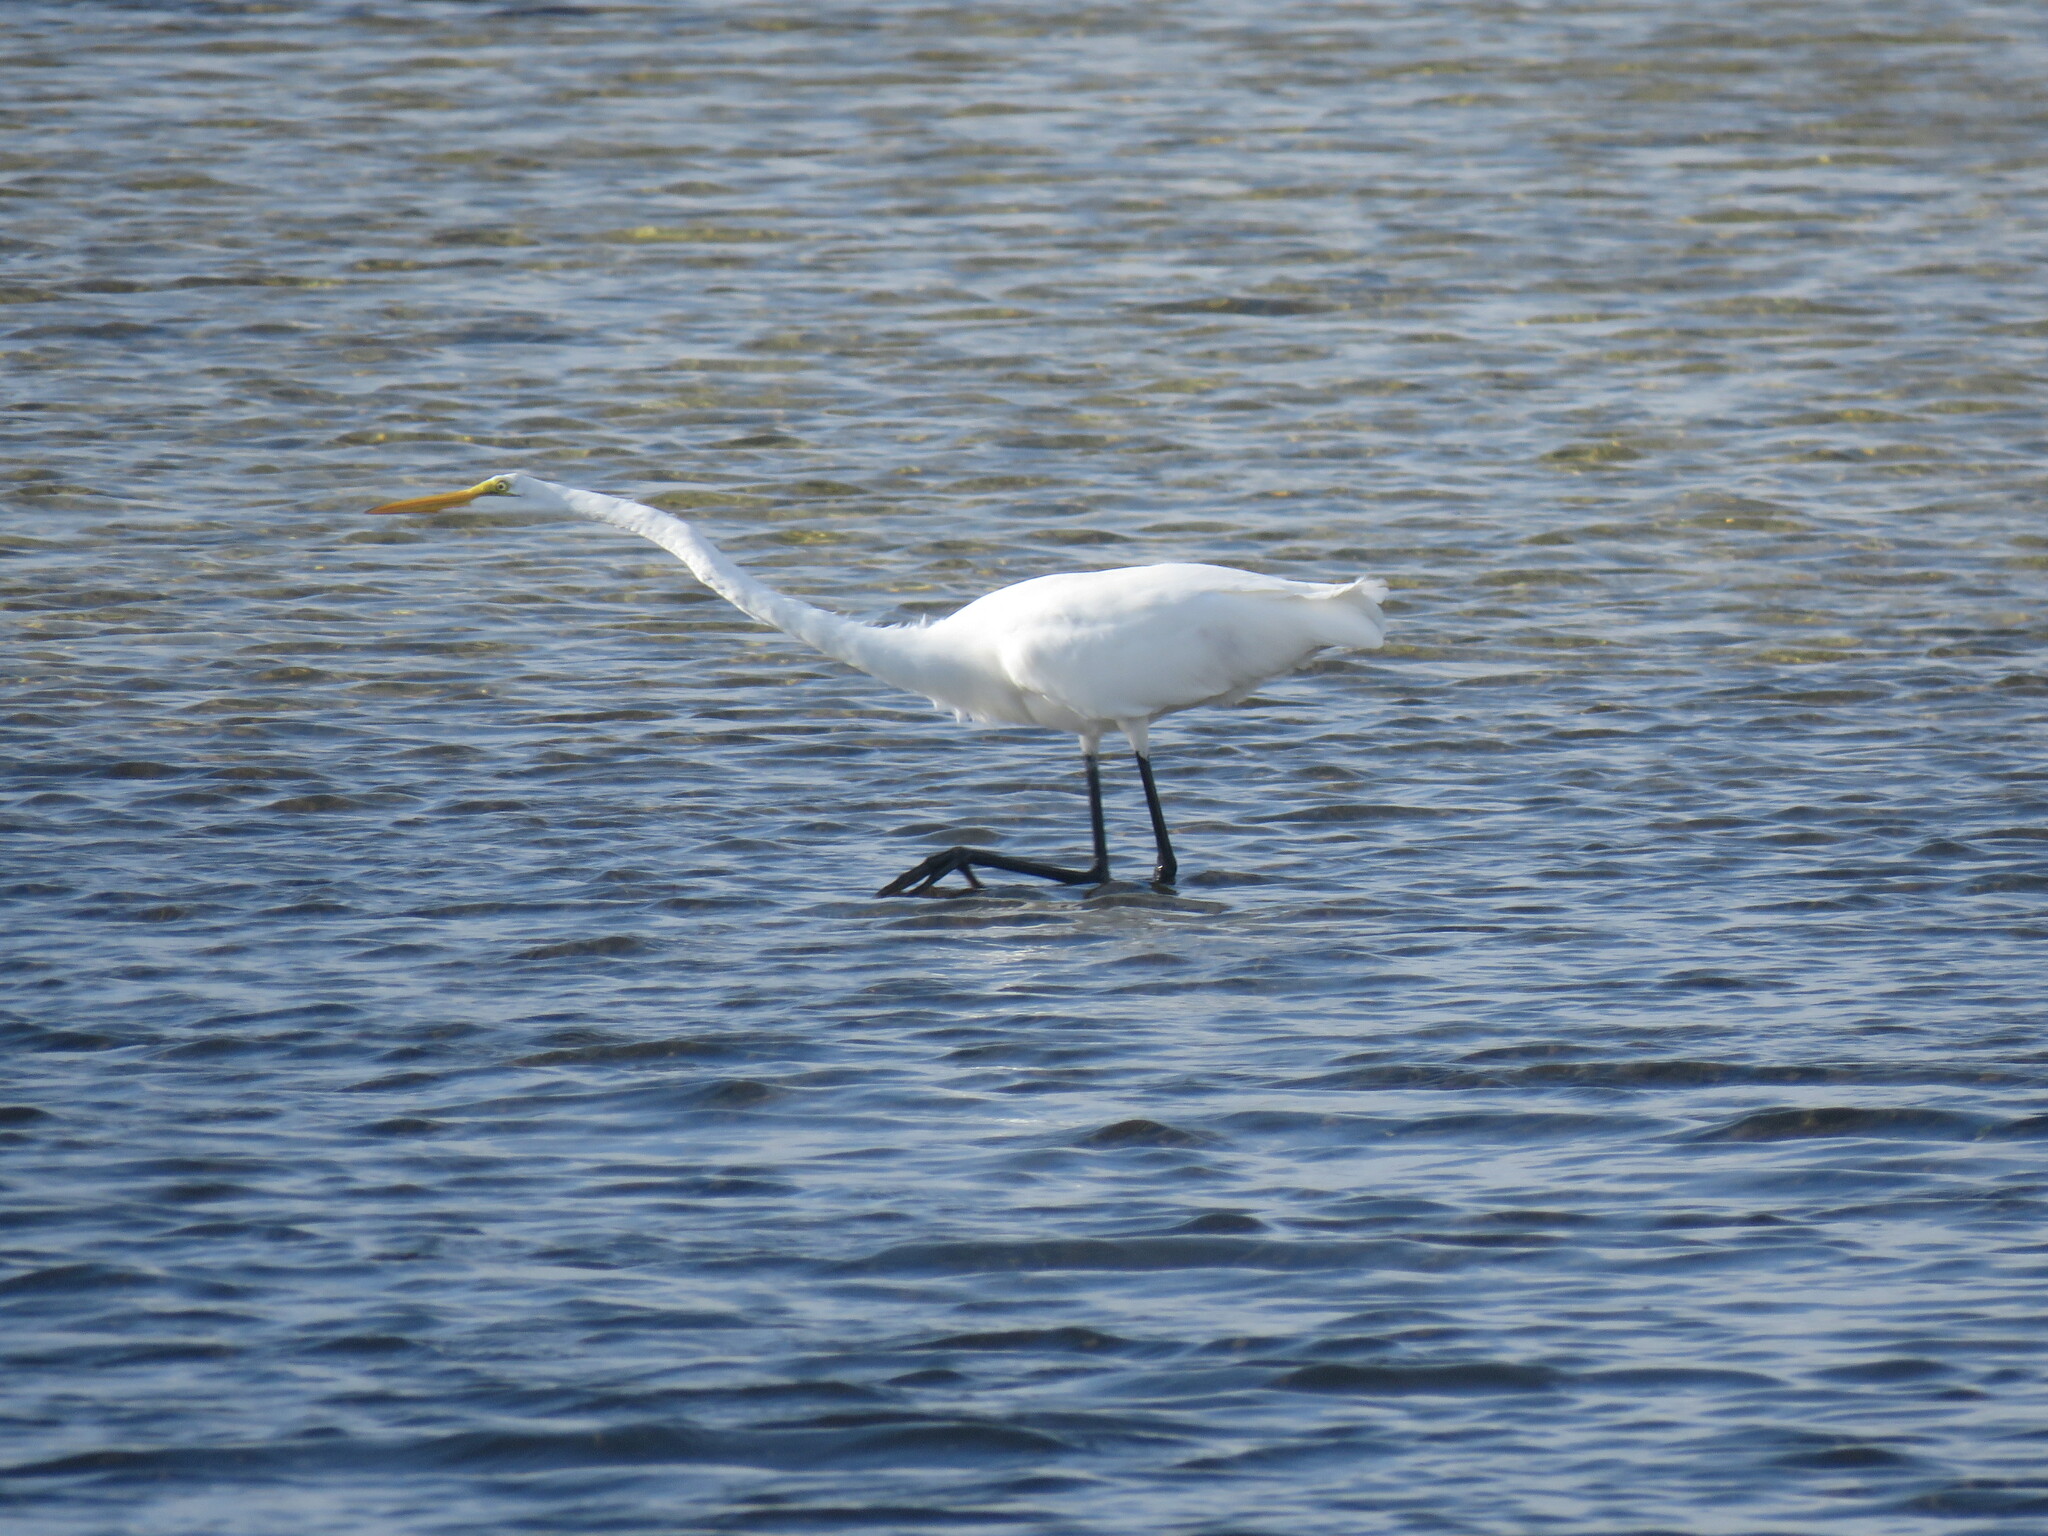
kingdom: Animalia
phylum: Chordata
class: Aves
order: Pelecaniformes
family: Ardeidae
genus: Ardea
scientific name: Ardea alba
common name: Great egret
